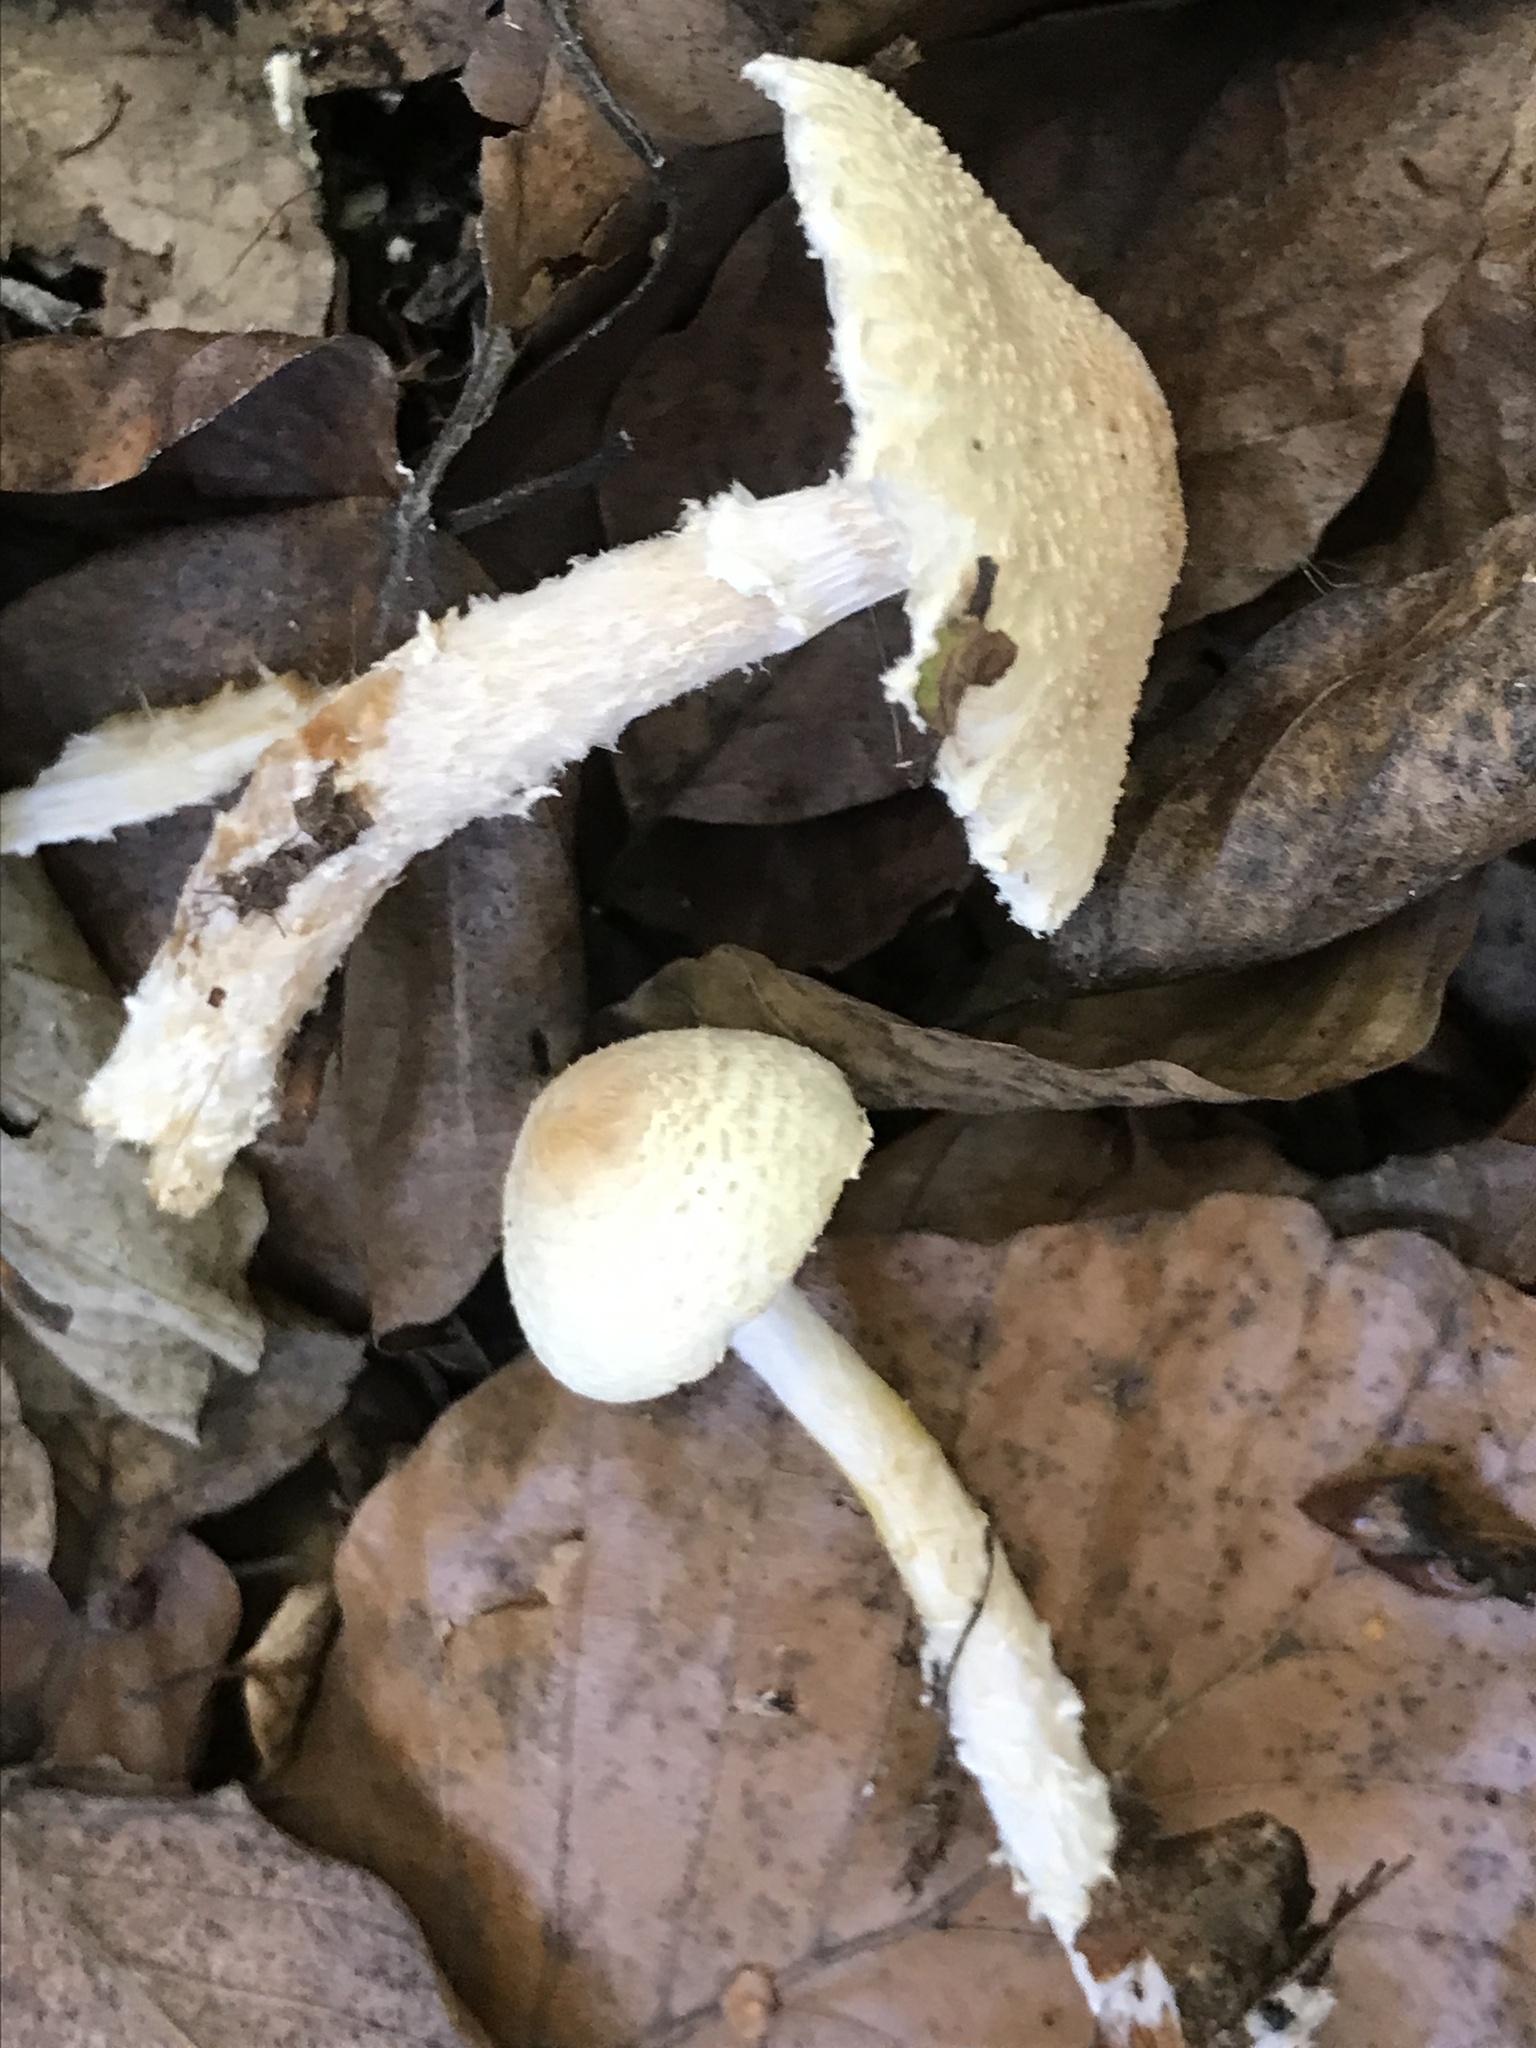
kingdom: Fungi
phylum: Basidiomycota
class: Agaricomycetes
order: Agaricales
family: Agaricaceae
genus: Lepiota
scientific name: Lepiota clypeolaria
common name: Shield dapperling
